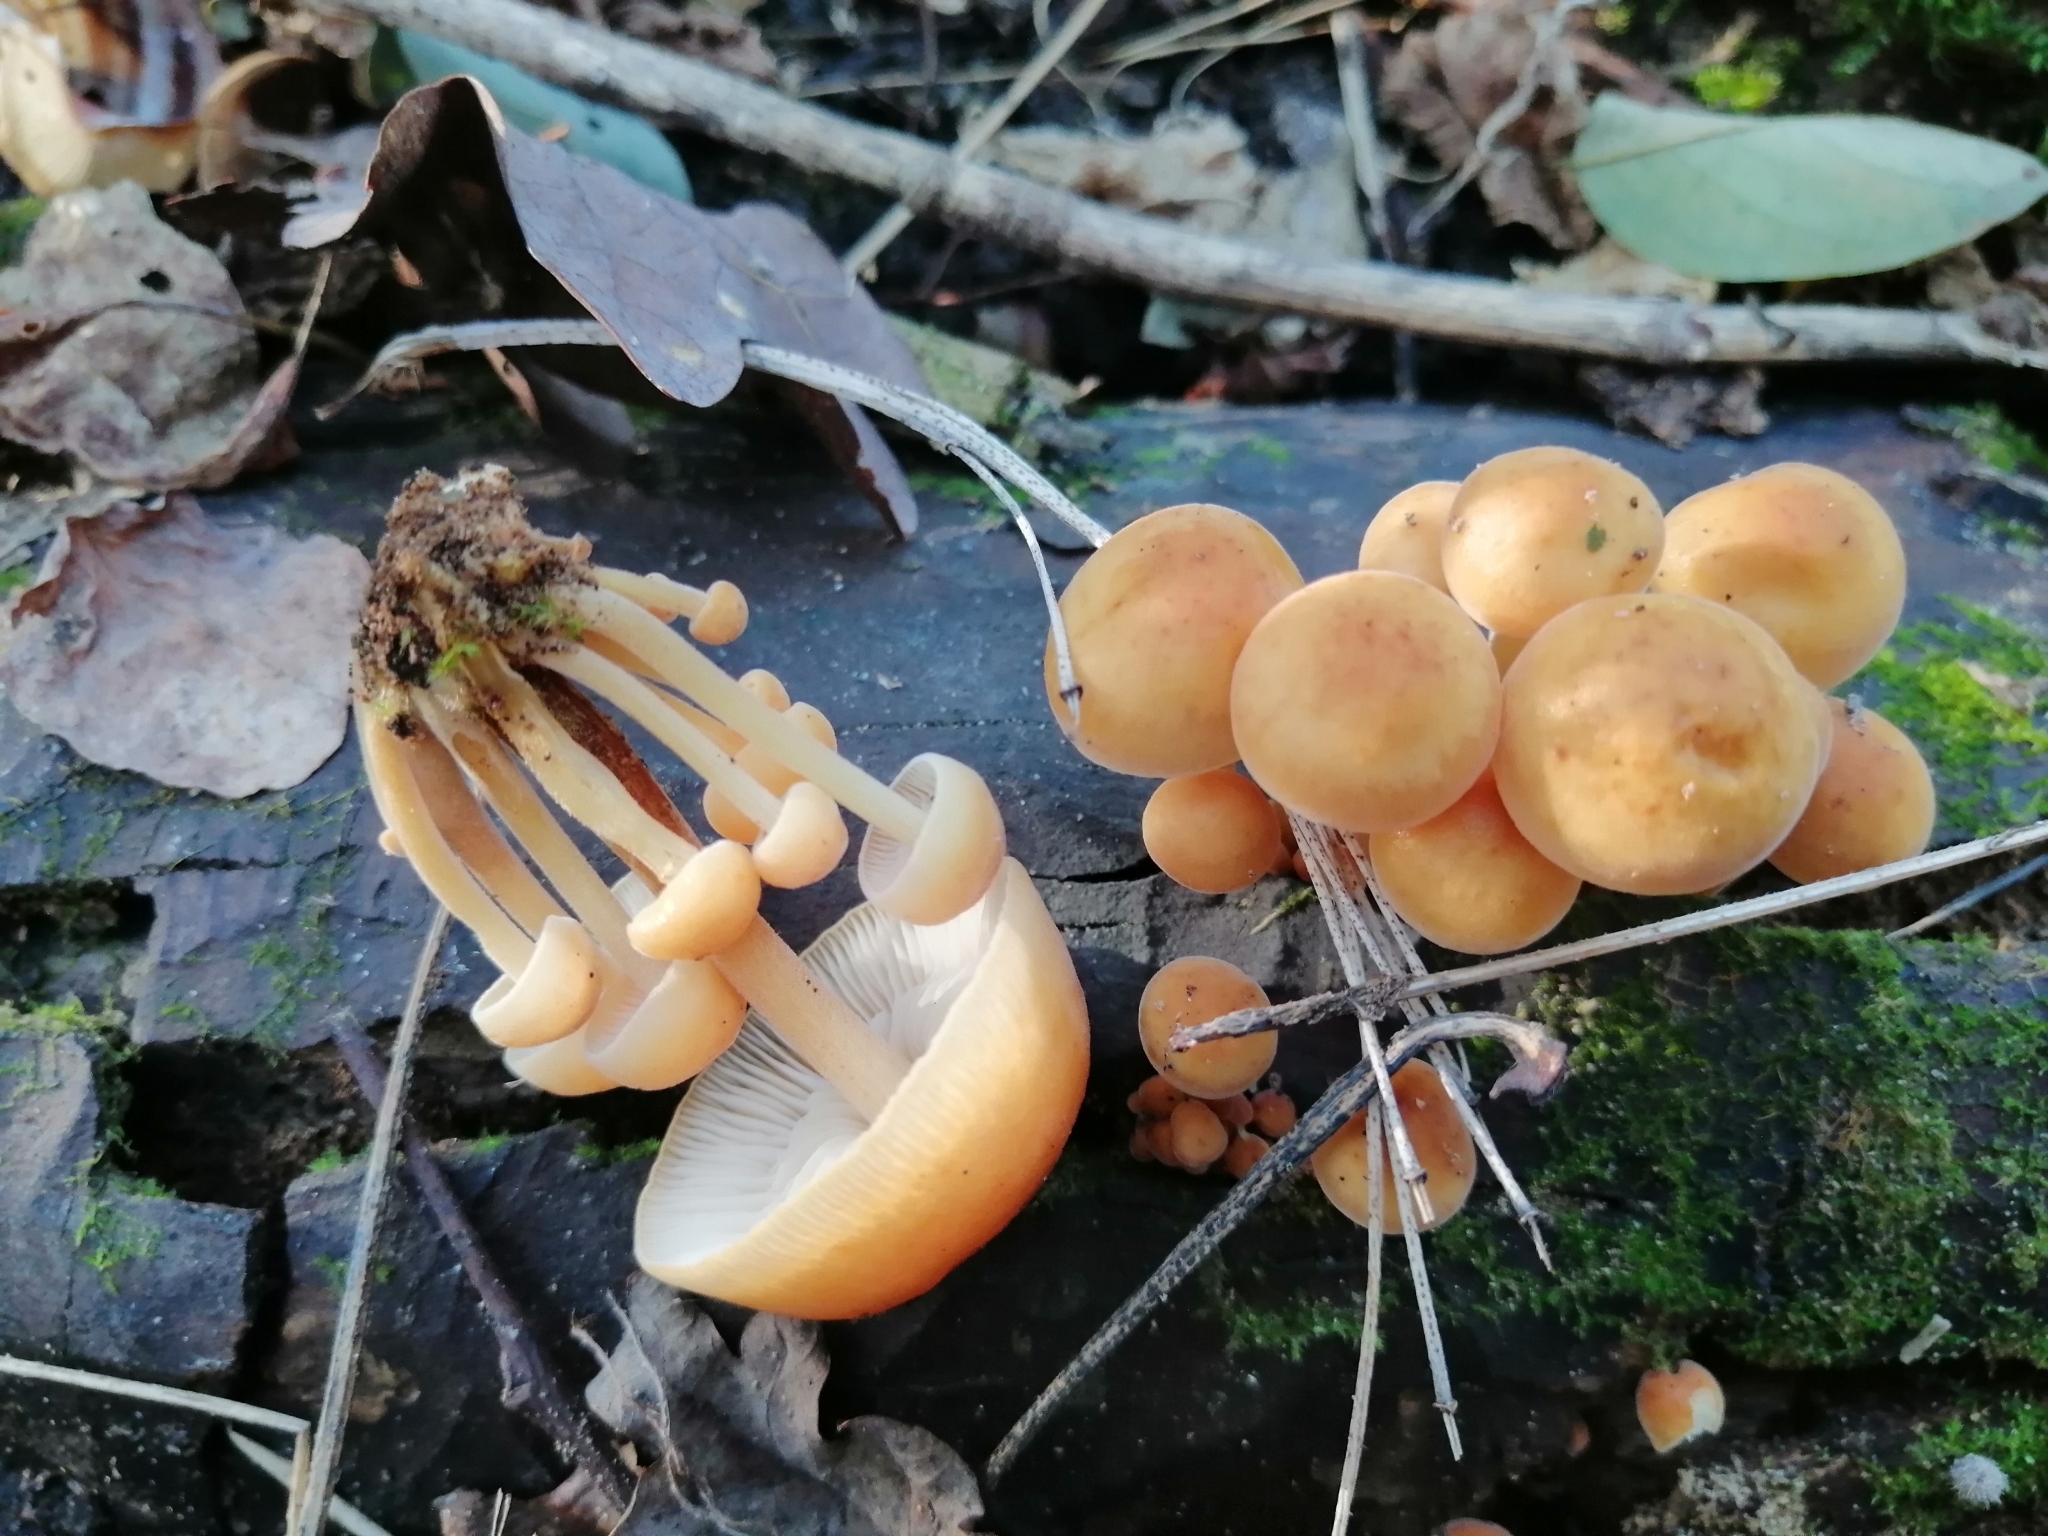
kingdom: Fungi
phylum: Basidiomycota
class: Agaricomycetes
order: Agaricales
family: Physalacriaceae
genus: Flammulina
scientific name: Flammulina
